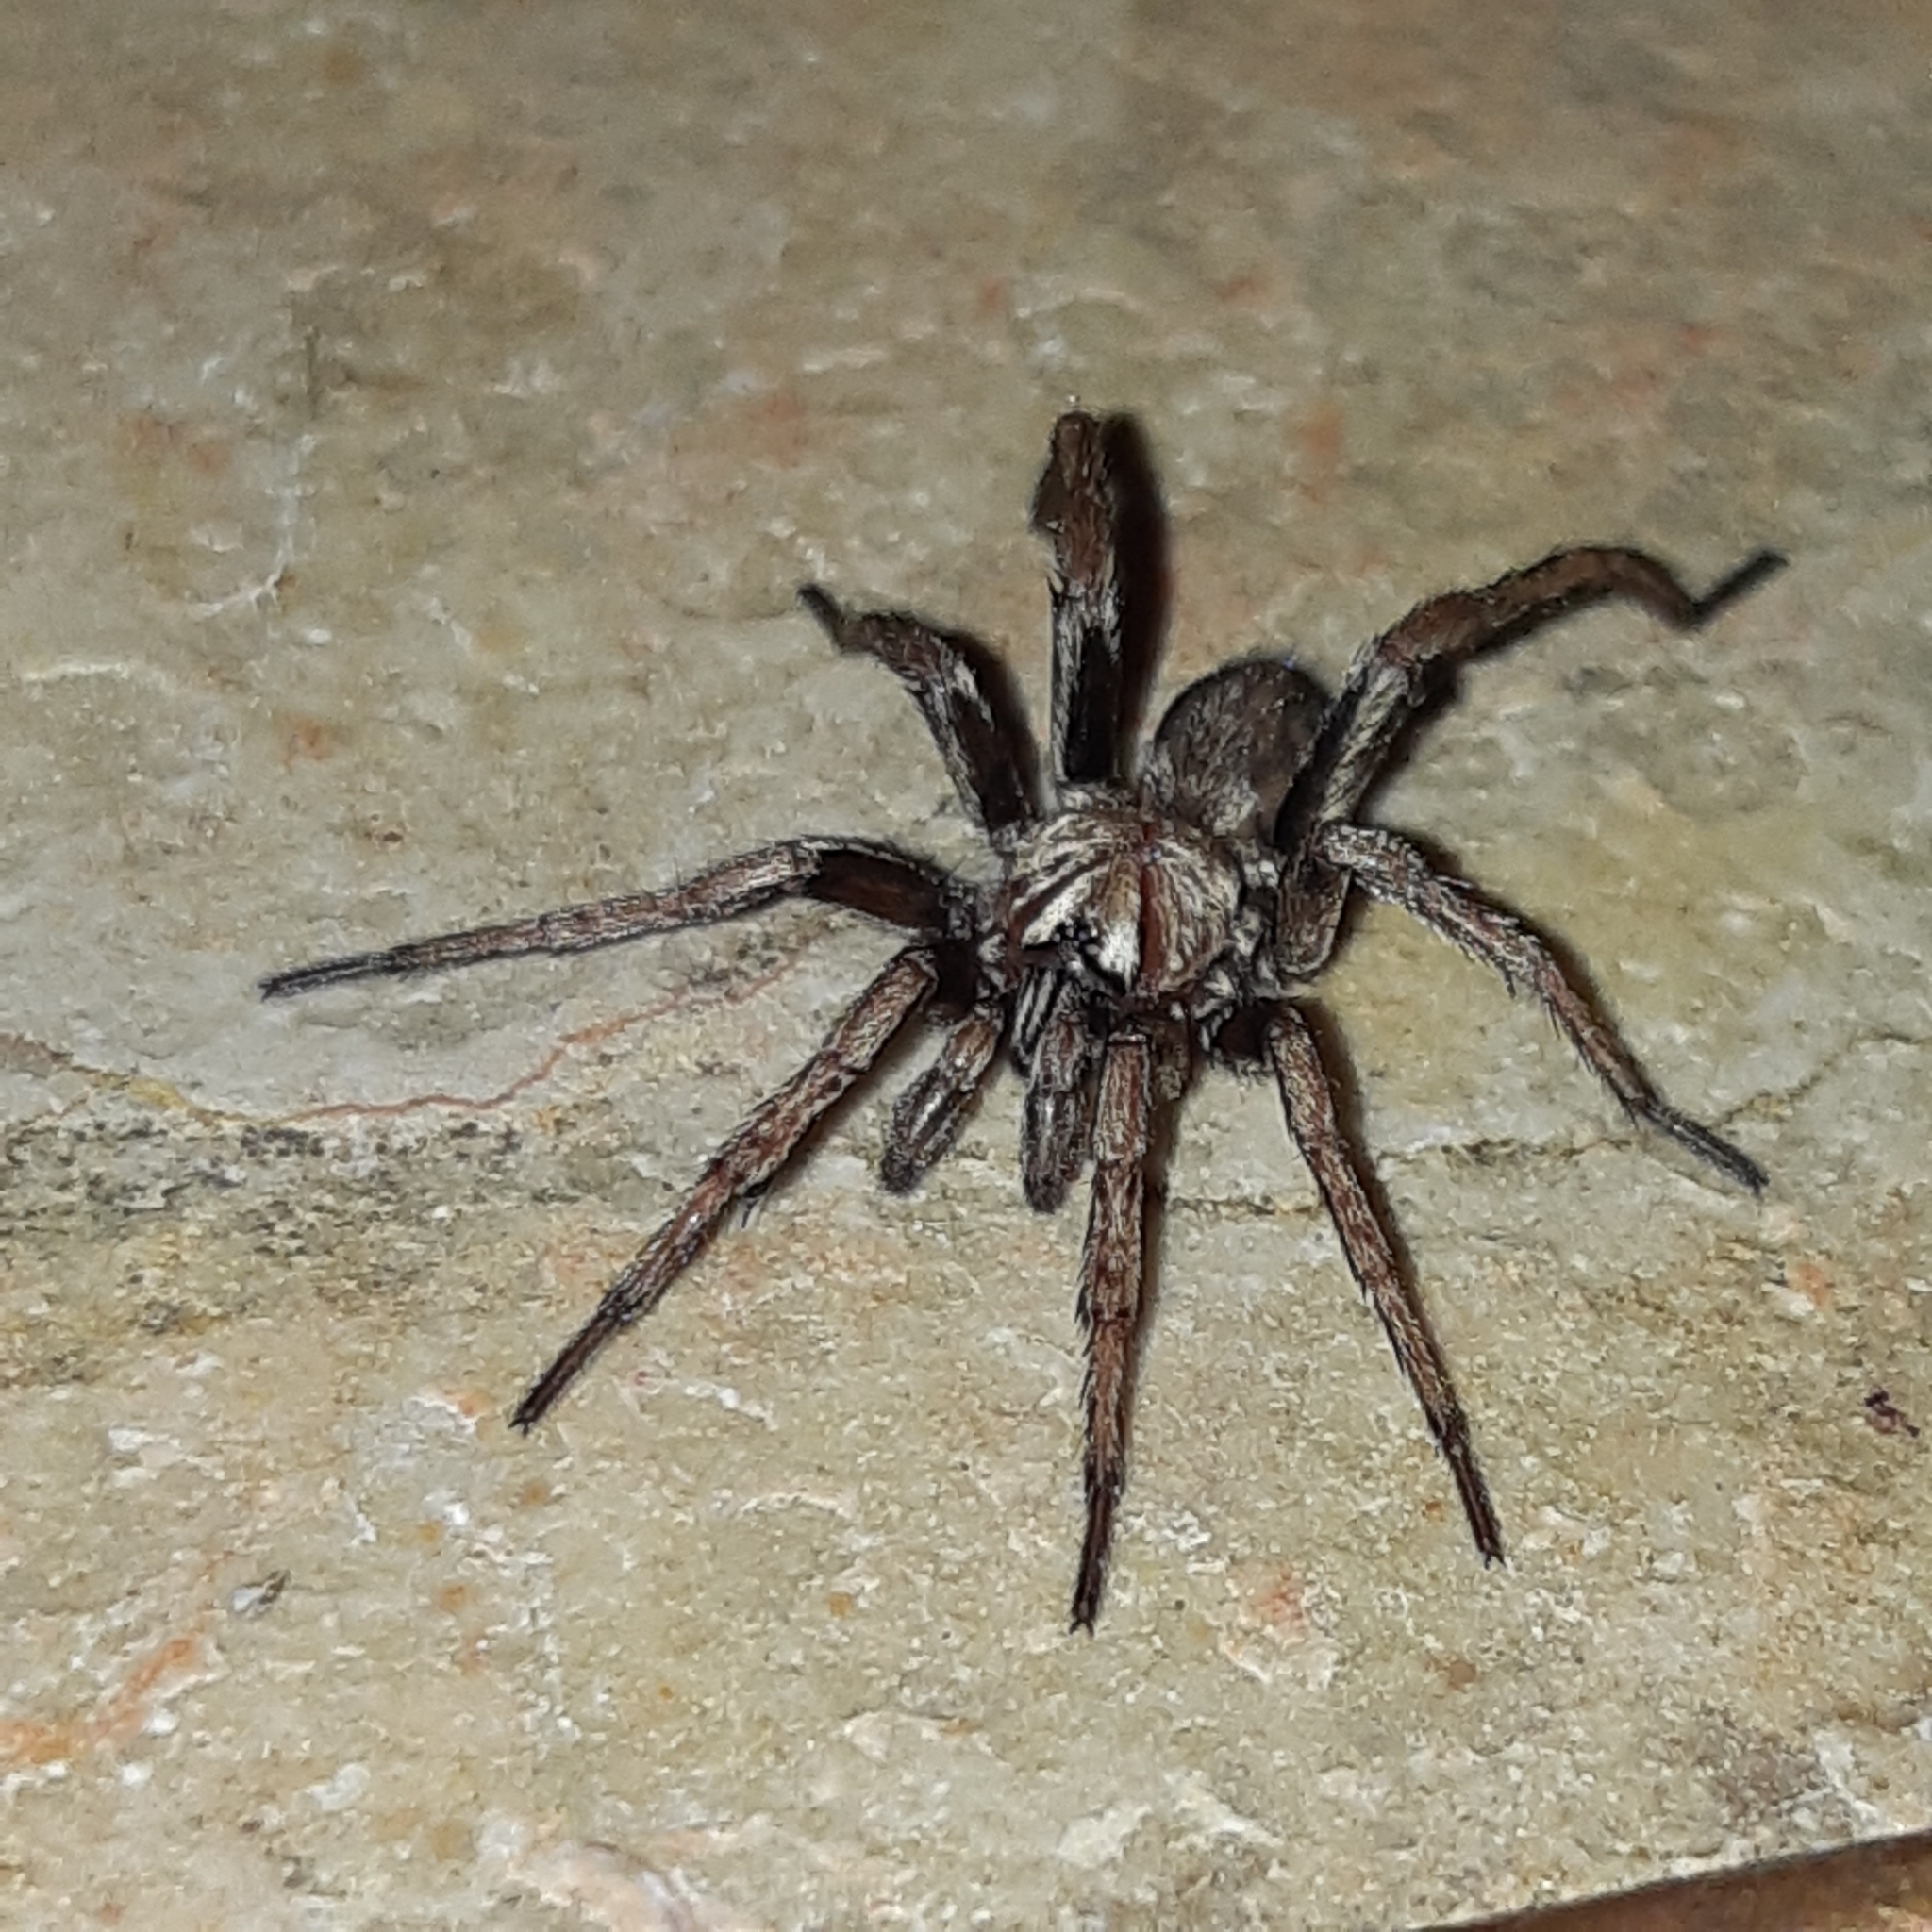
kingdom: Animalia
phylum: Arthropoda
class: Arachnida
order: Araneae
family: Nemesiidae
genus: Nemesia
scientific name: Nemesia
